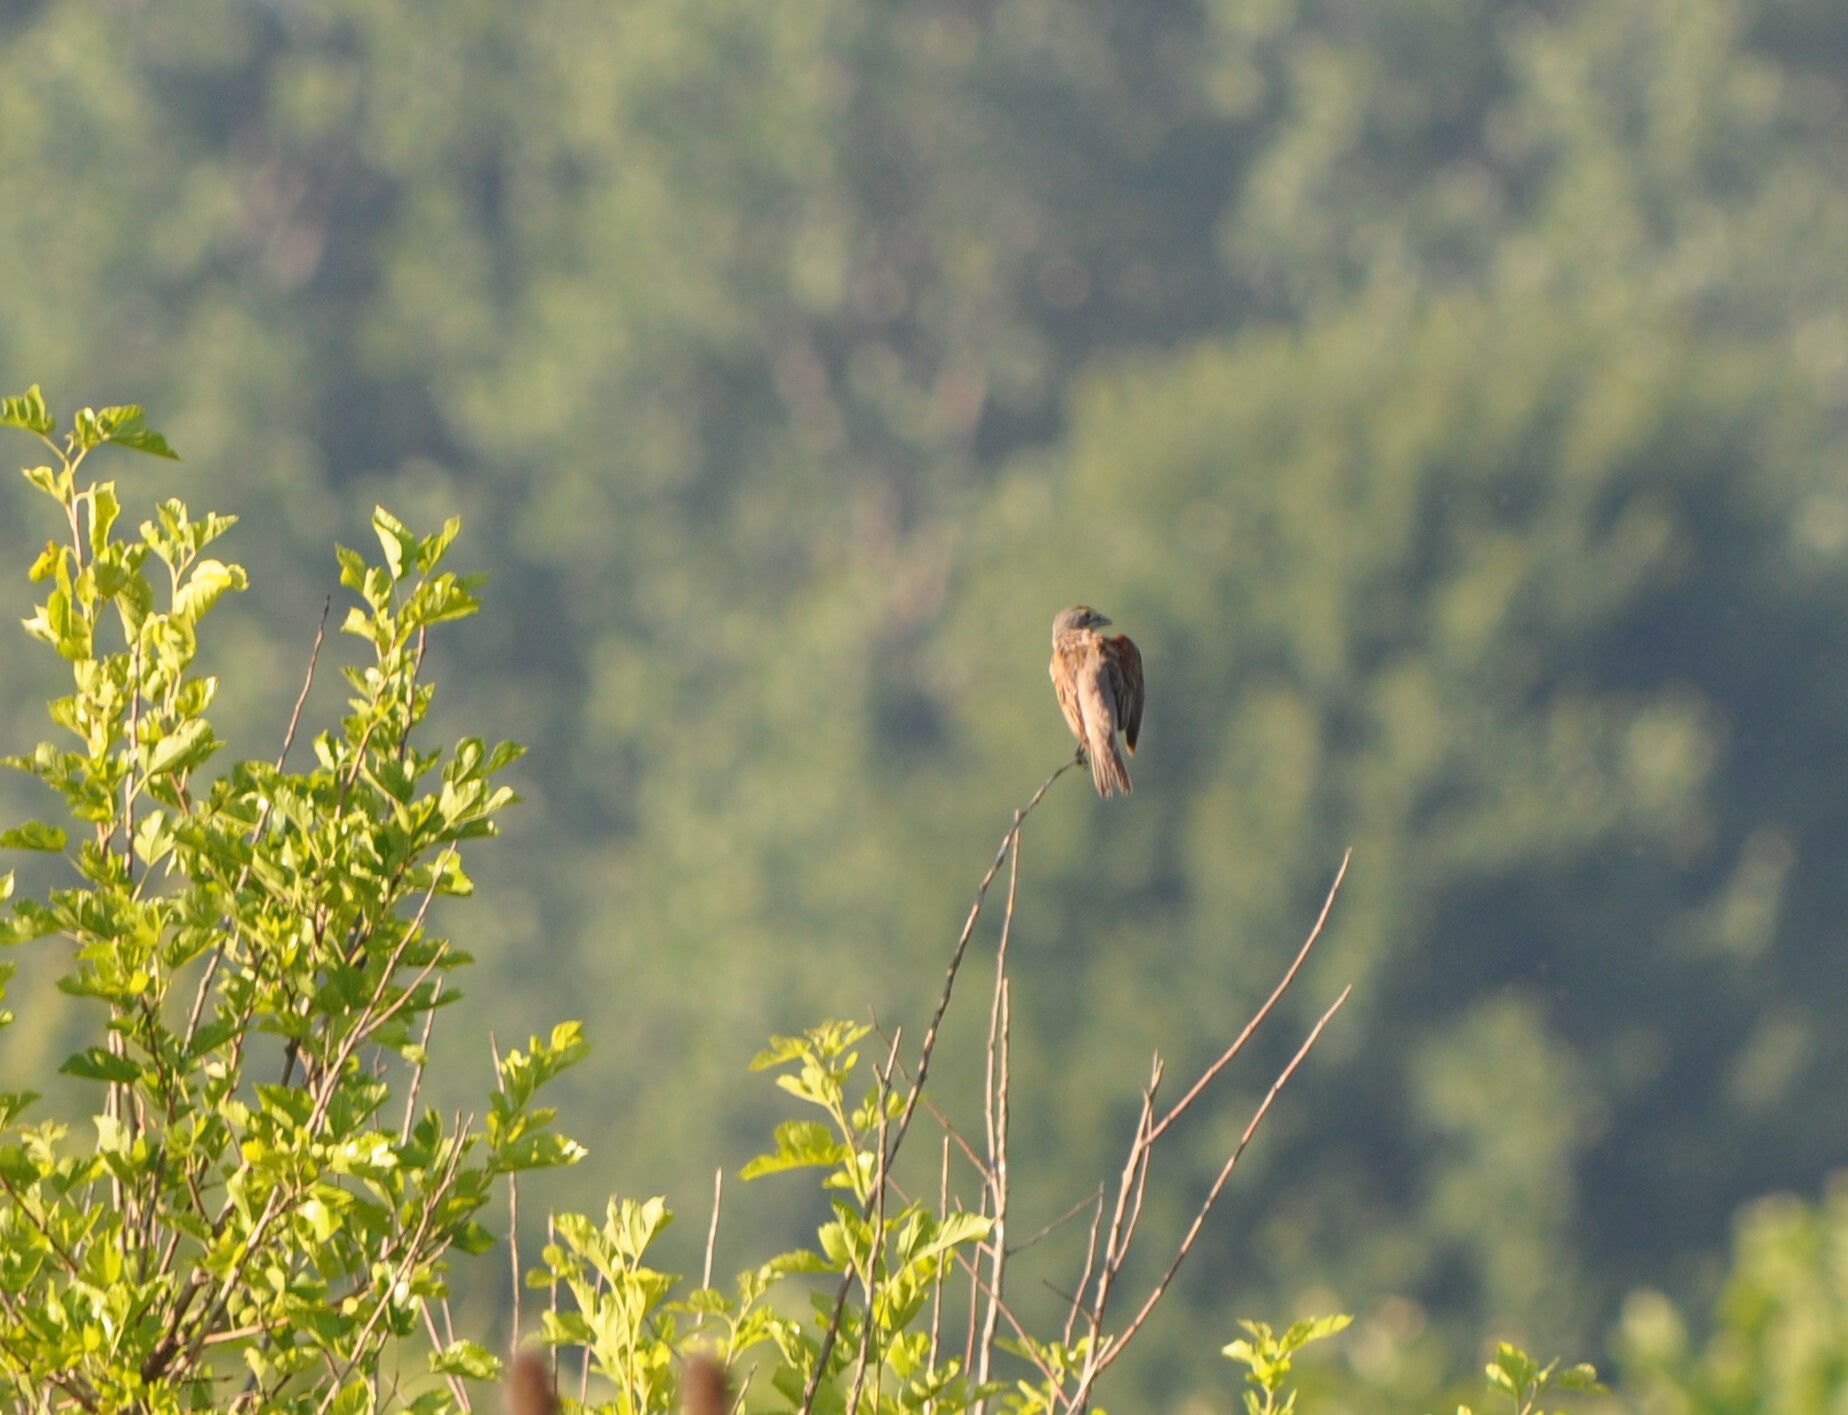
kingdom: Animalia
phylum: Chordata
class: Aves
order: Passeriformes
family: Cardinalidae
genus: Spiza
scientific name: Spiza americana
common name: Dickcissel
